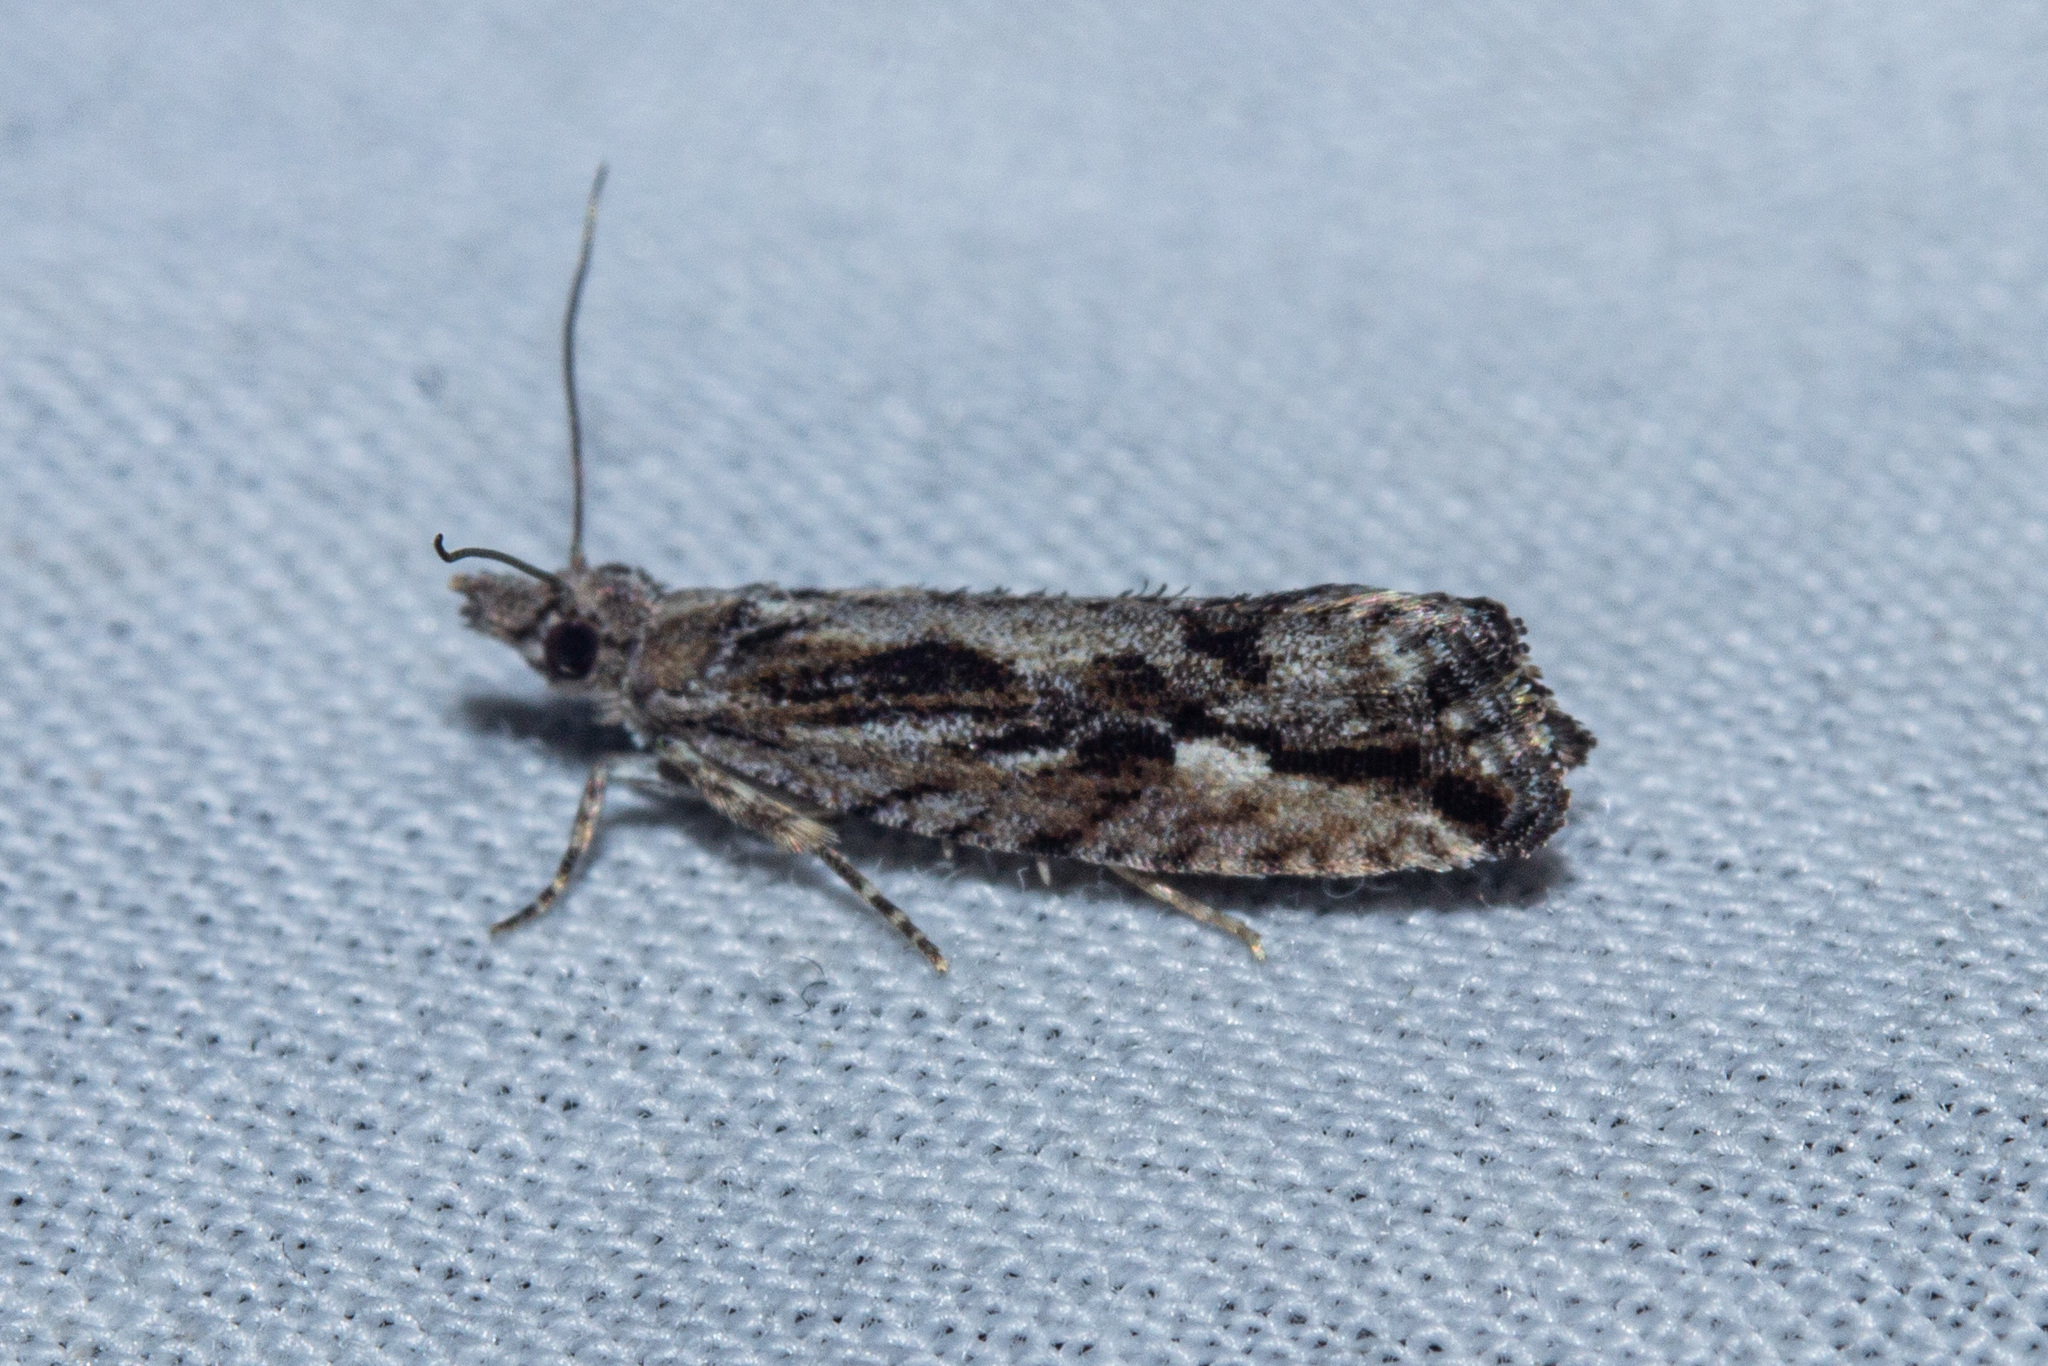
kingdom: Animalia
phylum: Arthropoda
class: Insecta
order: Lepidoptera
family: Tortricidae
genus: Strepsicrates
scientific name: Strepsicrates ejectana
